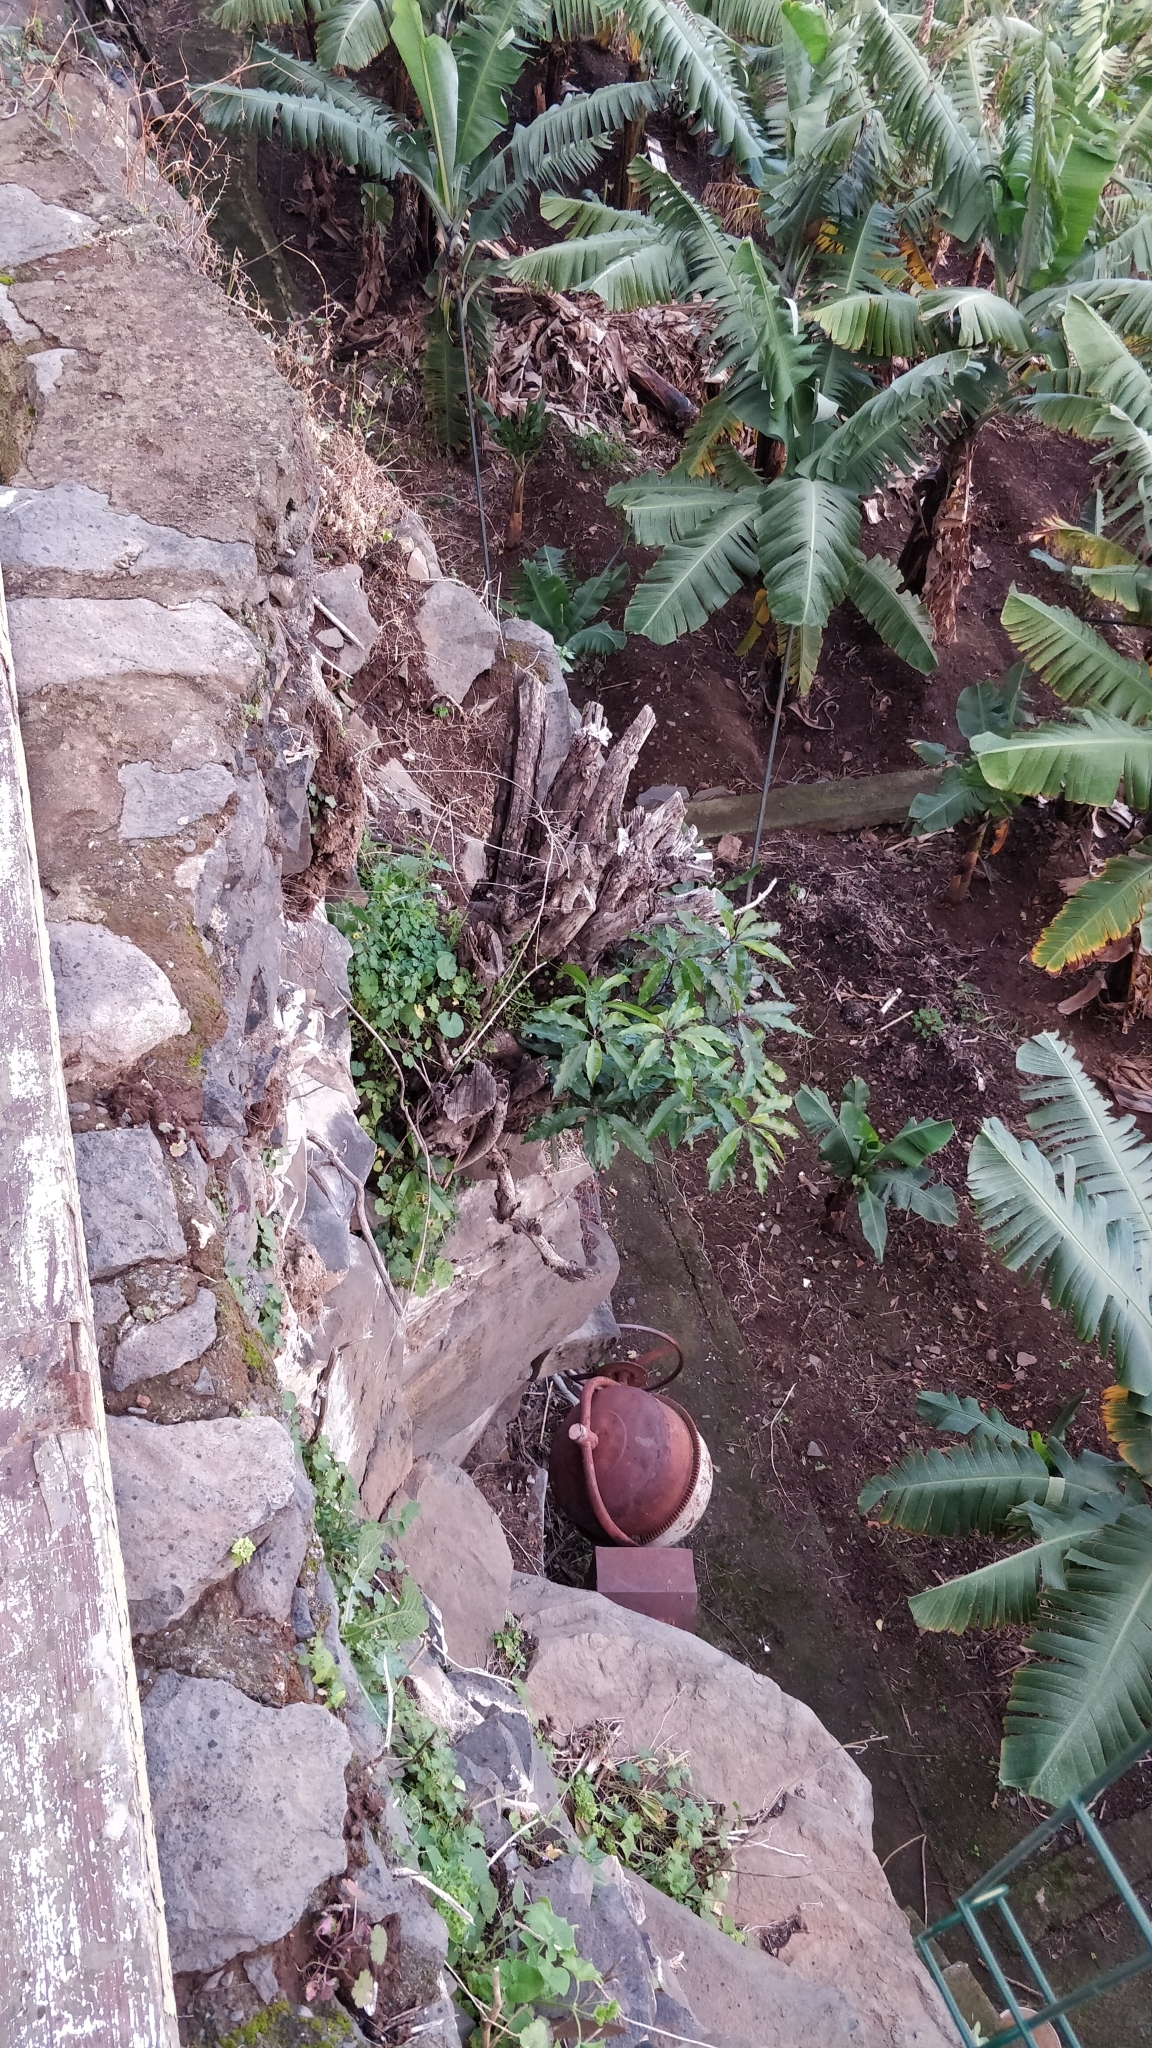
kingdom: Plantae
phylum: Tracheophyta
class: Magnoliopsida
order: Apiales
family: Pittosporaceae
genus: Pittosporum
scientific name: Pittosporum undulatum
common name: Australian cheesewood
